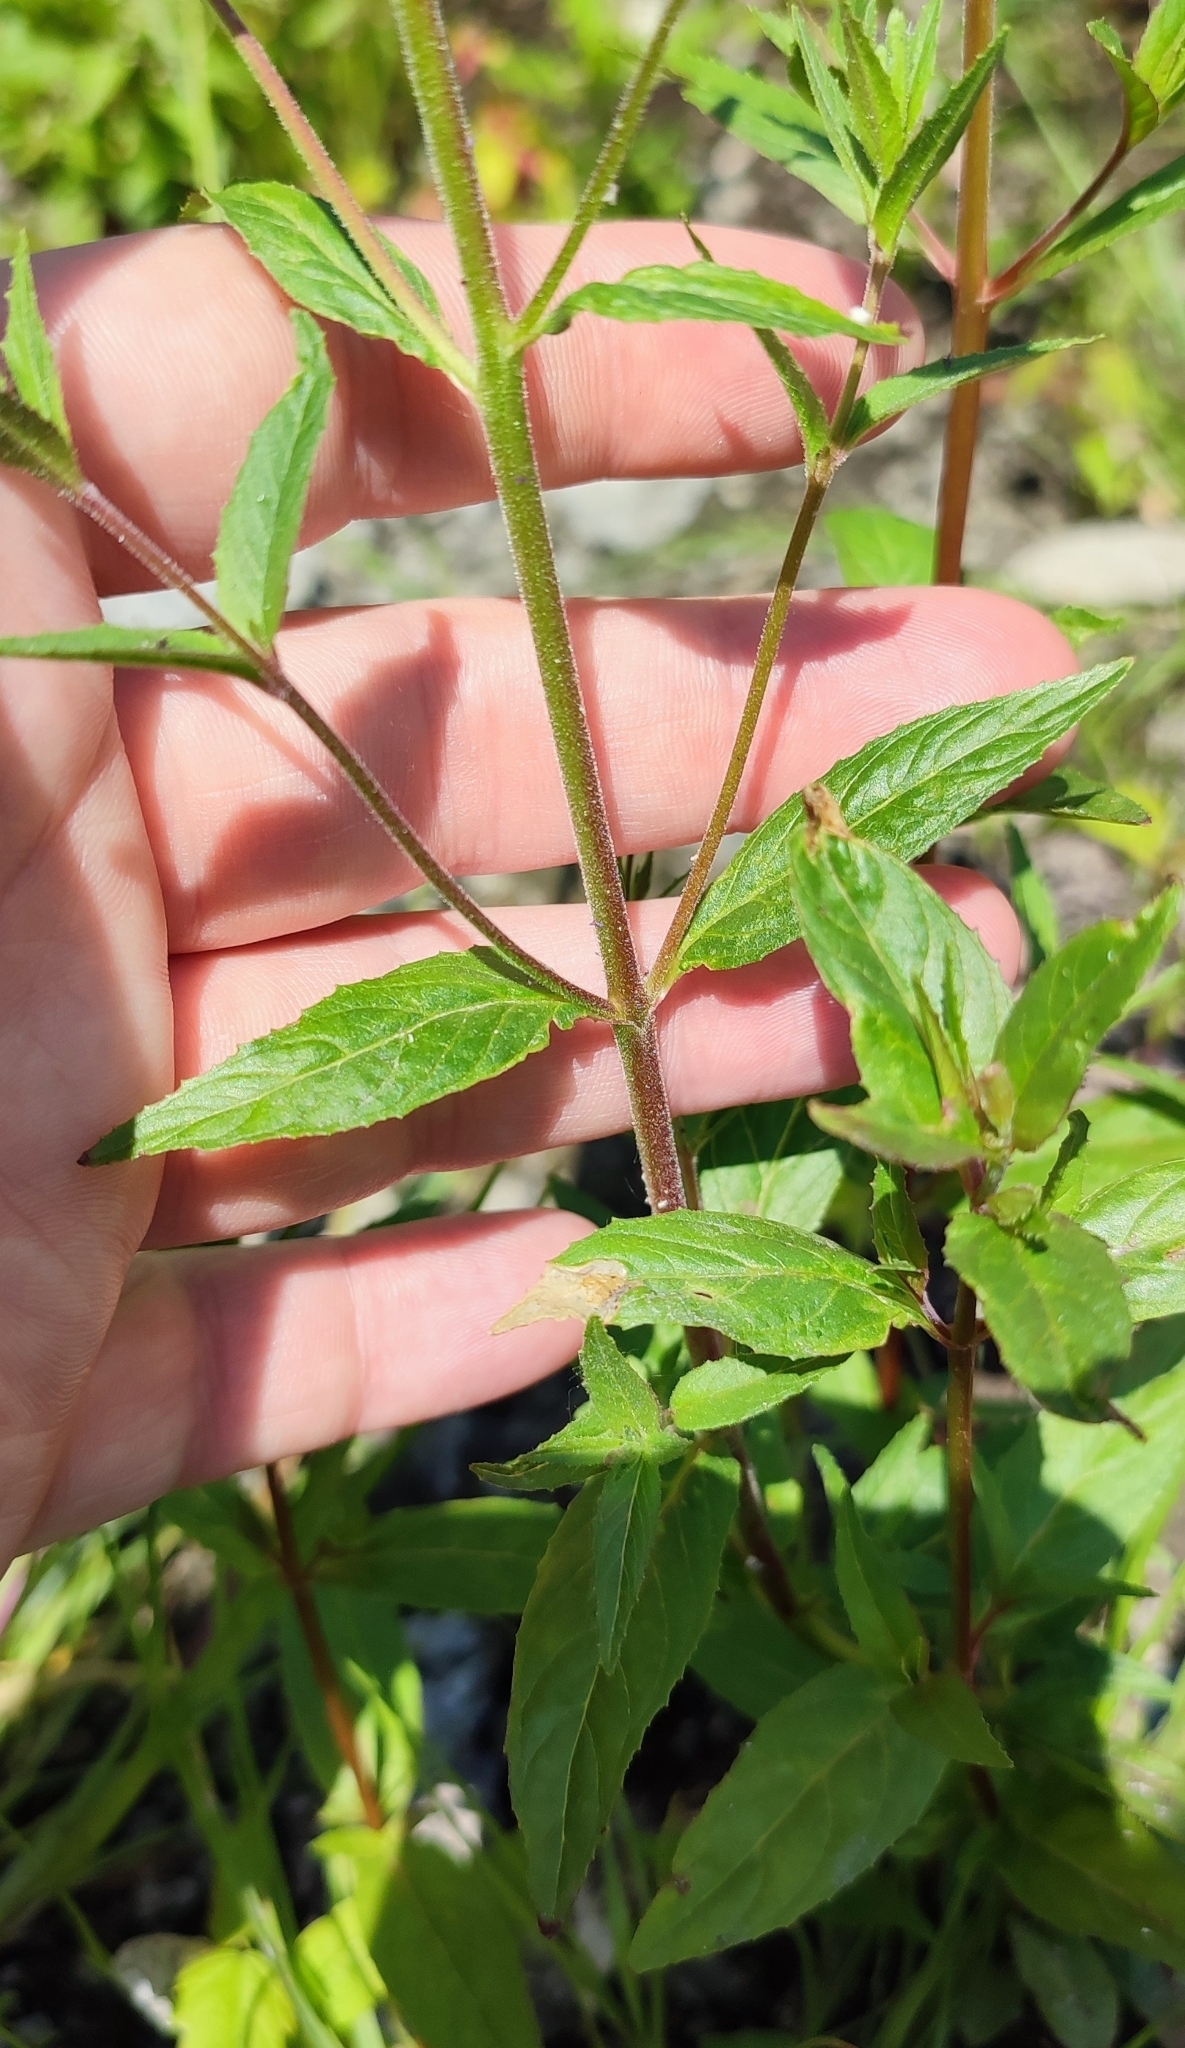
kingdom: Plantae
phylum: Tracheophyta
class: Magnoliopsida
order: Myrtales
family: Onagraceae
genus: Epilobium
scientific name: Epilobium pseudorubescens
